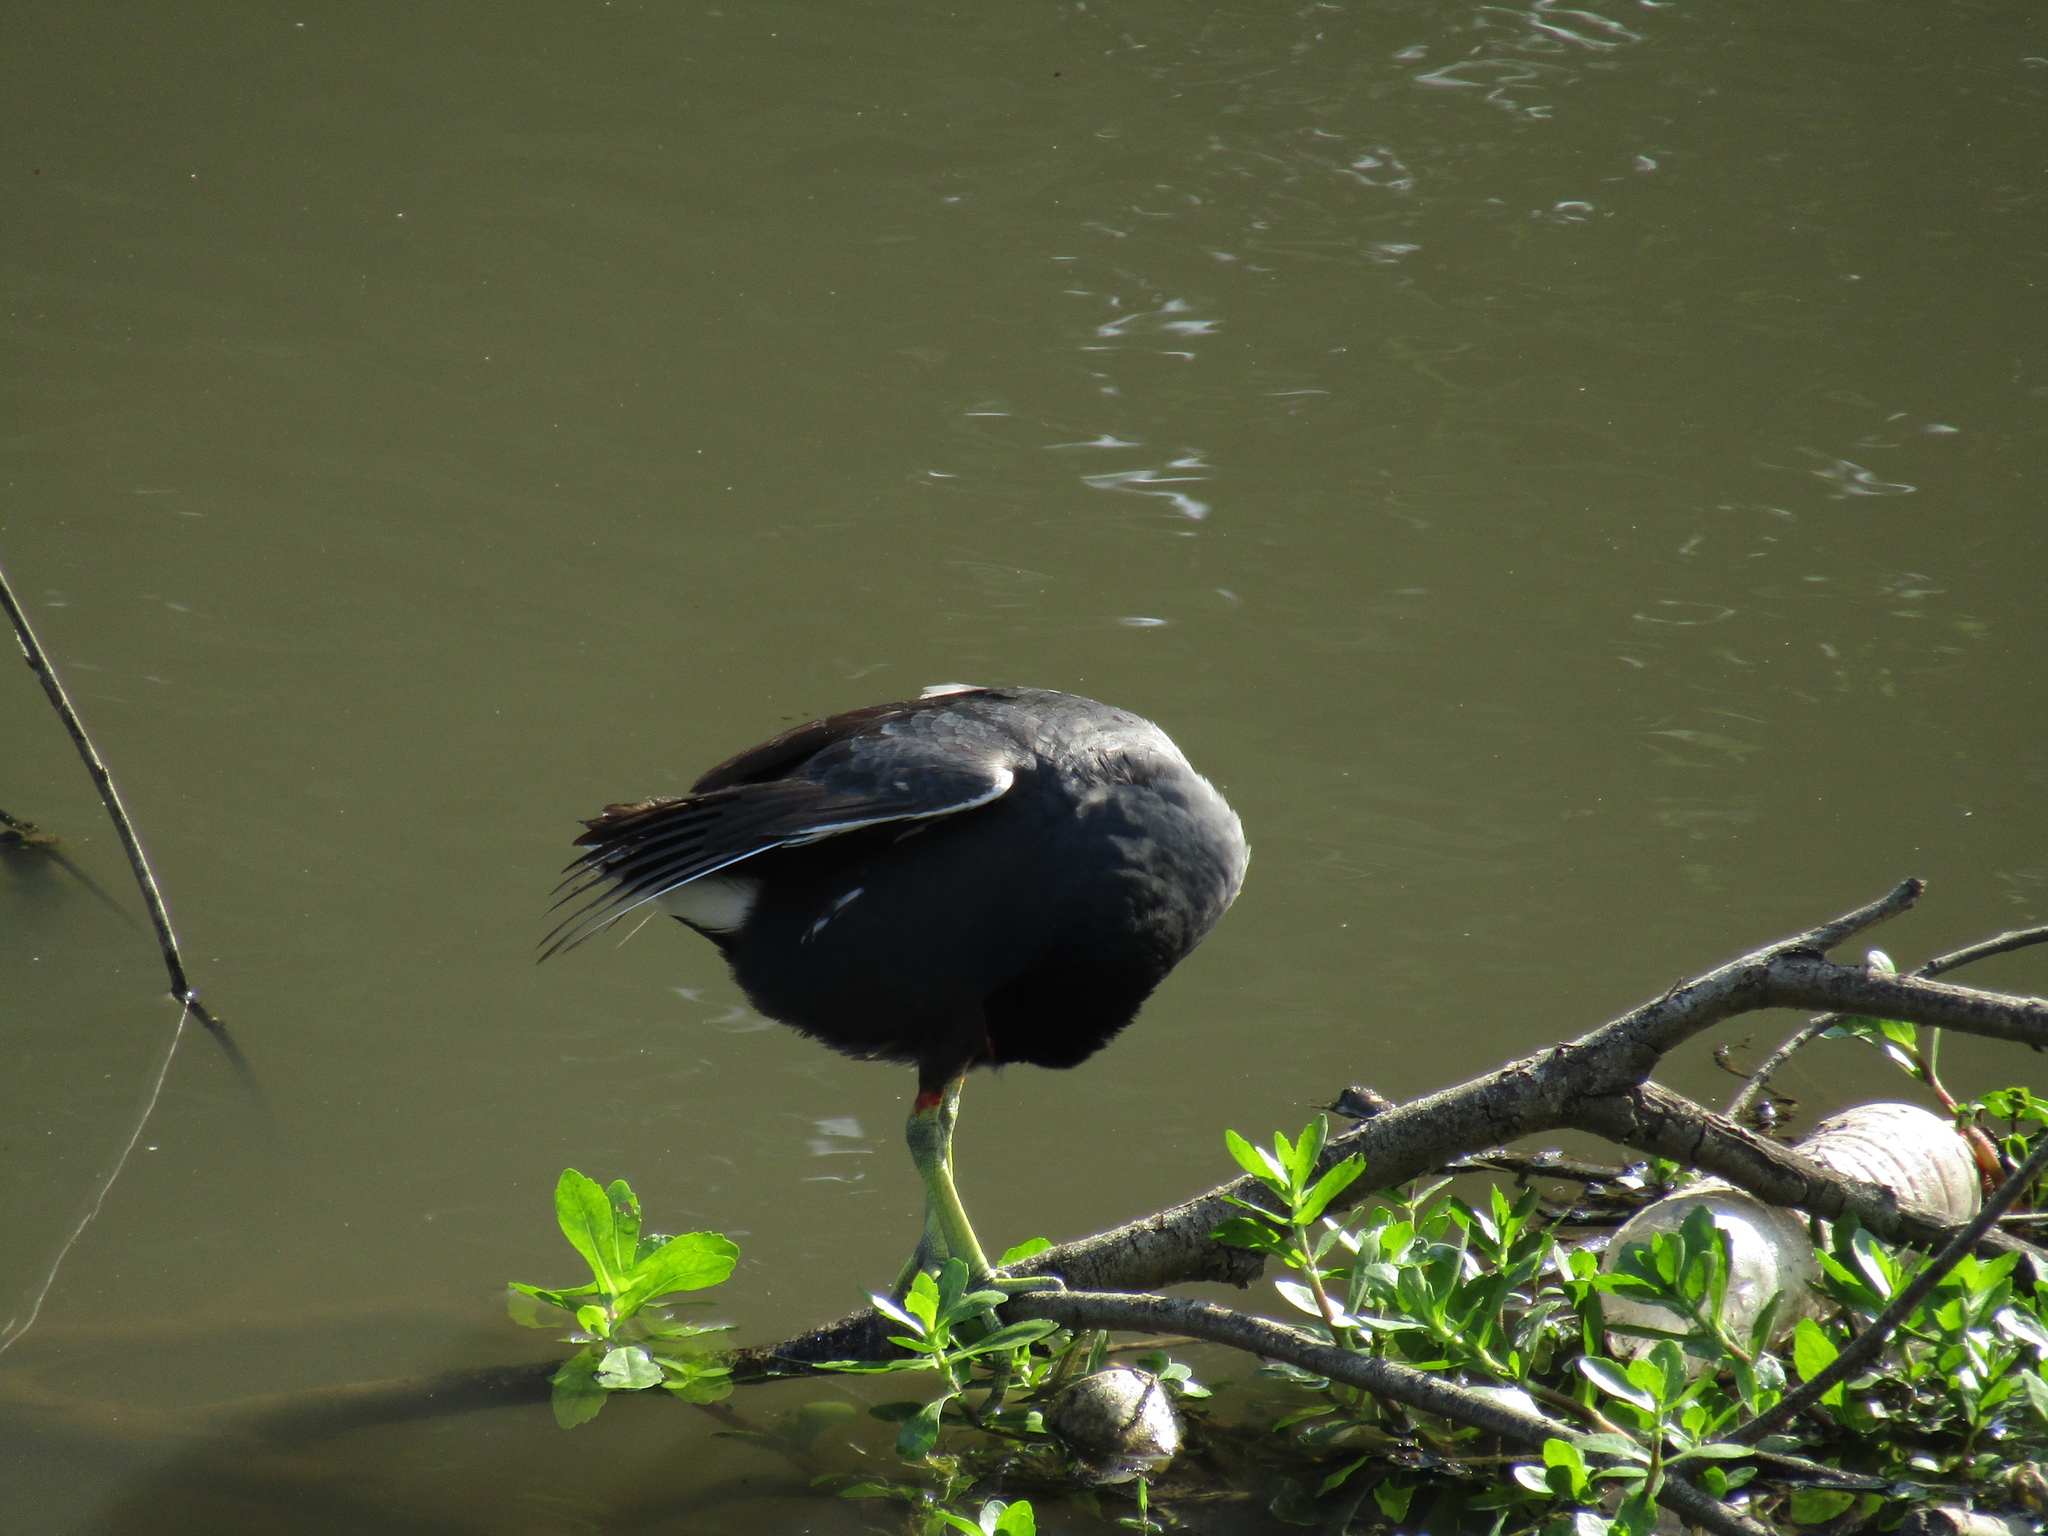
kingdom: Animalia
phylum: Chordata
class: Aves
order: Gruiformes
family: Rallidae
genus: Gallinula
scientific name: Gallinula chloropus
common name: Common moorhen
